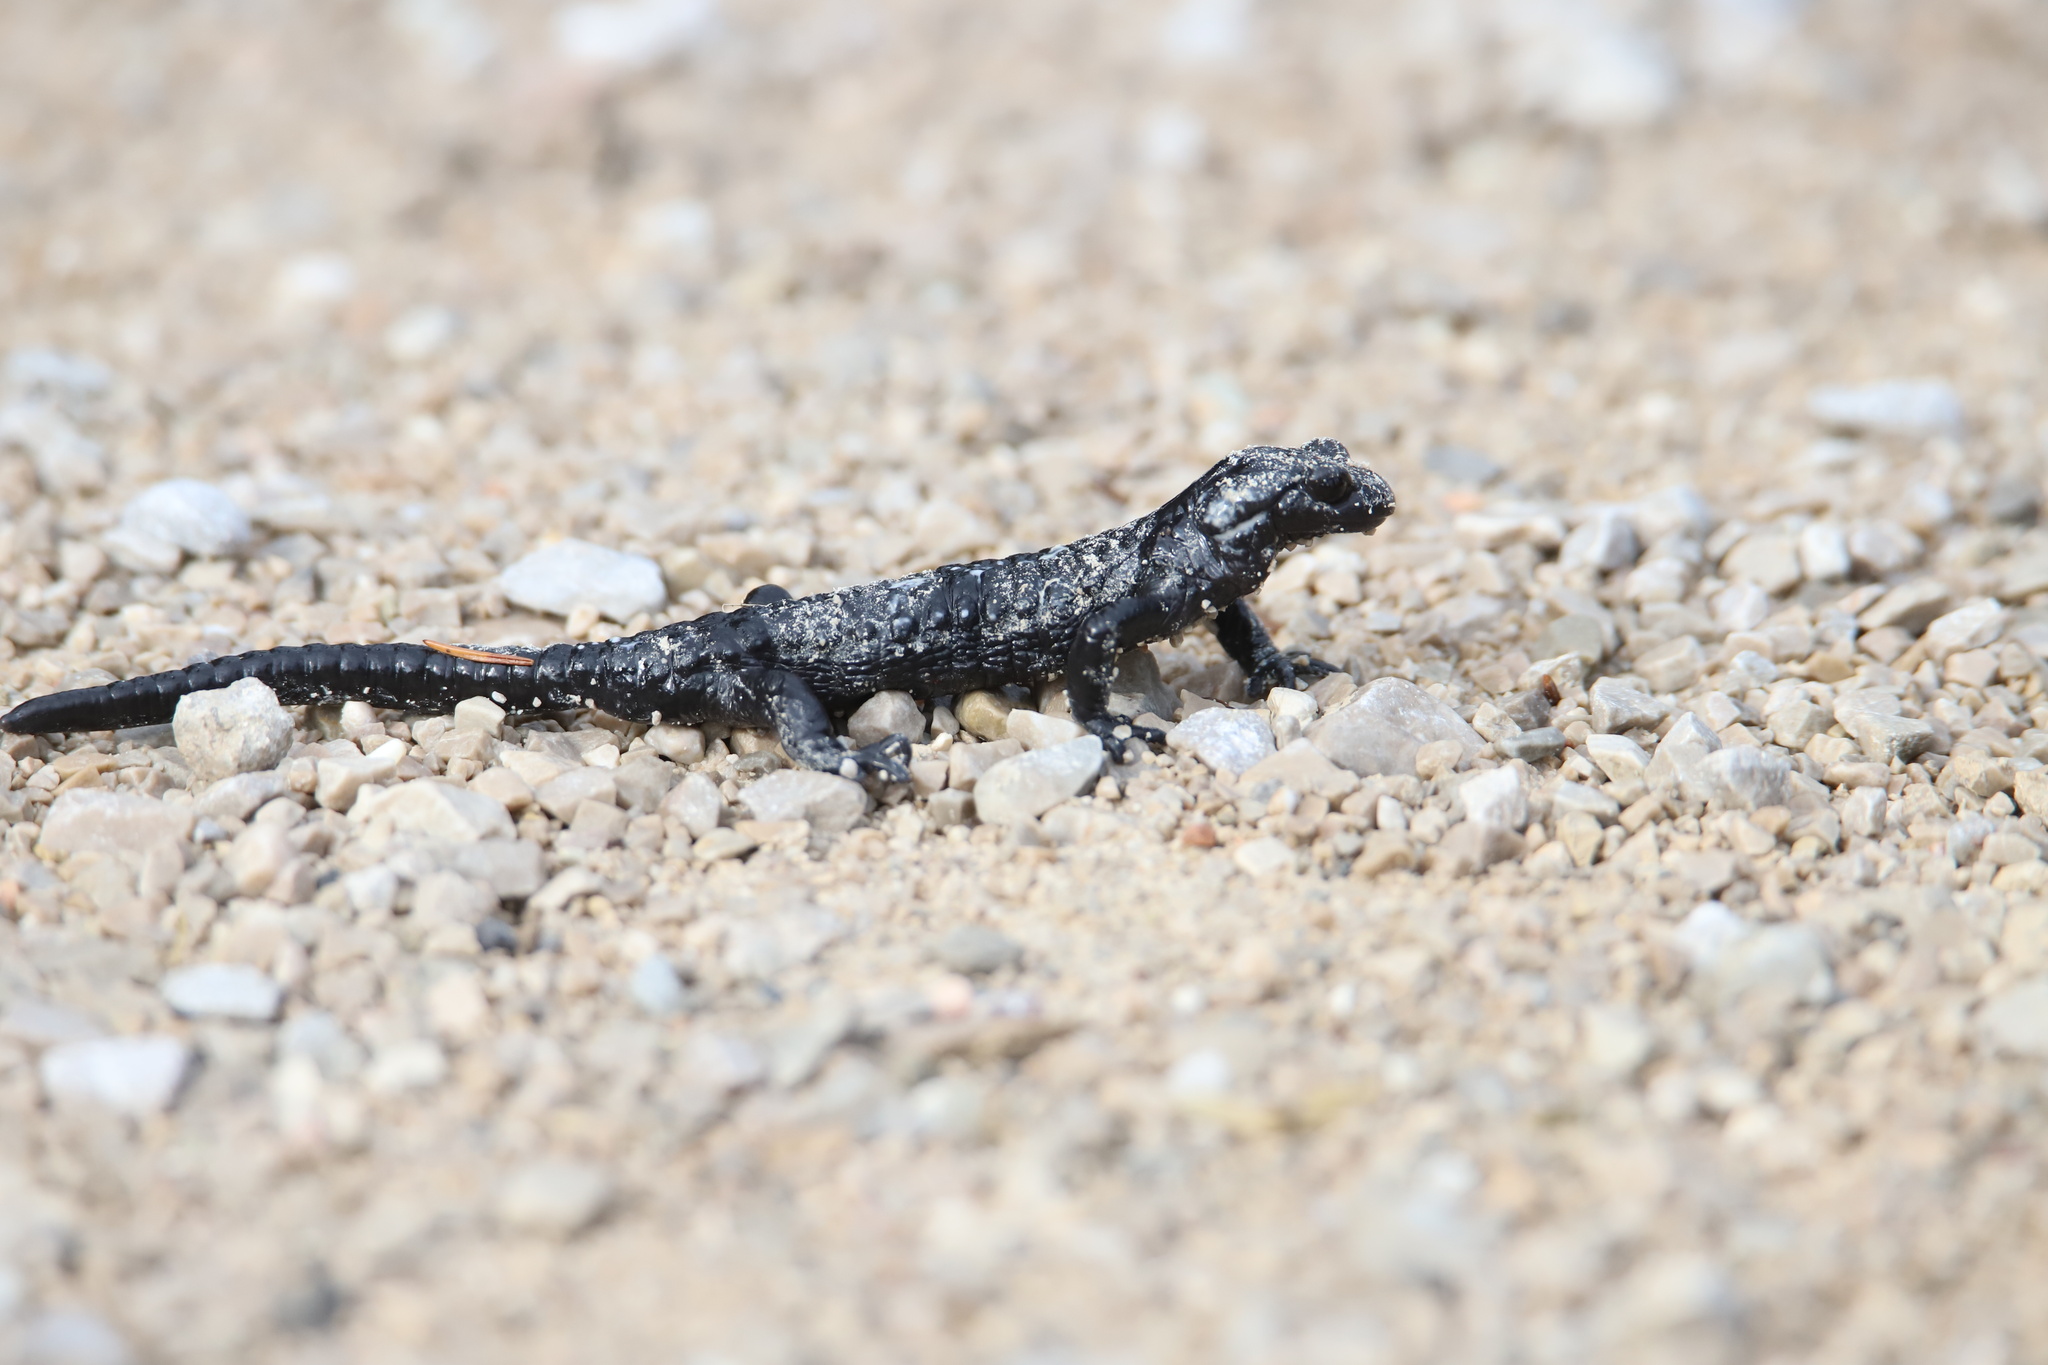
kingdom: Animalia
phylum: Chordata
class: Amphibia
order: Caudata
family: Salamandridae
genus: Salamandra
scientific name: Salamandra atra
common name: Alpine salamander
